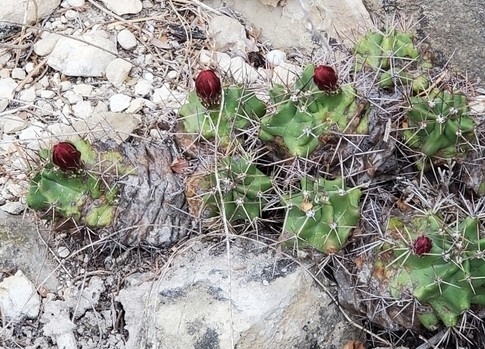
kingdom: Plantae
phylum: Tracheophyta
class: Magnoliopsida
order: Caryophyllales
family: Cactaceae
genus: Echinocereus
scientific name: Echinocereus coccineus
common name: Scarlet hedgehog cactus
